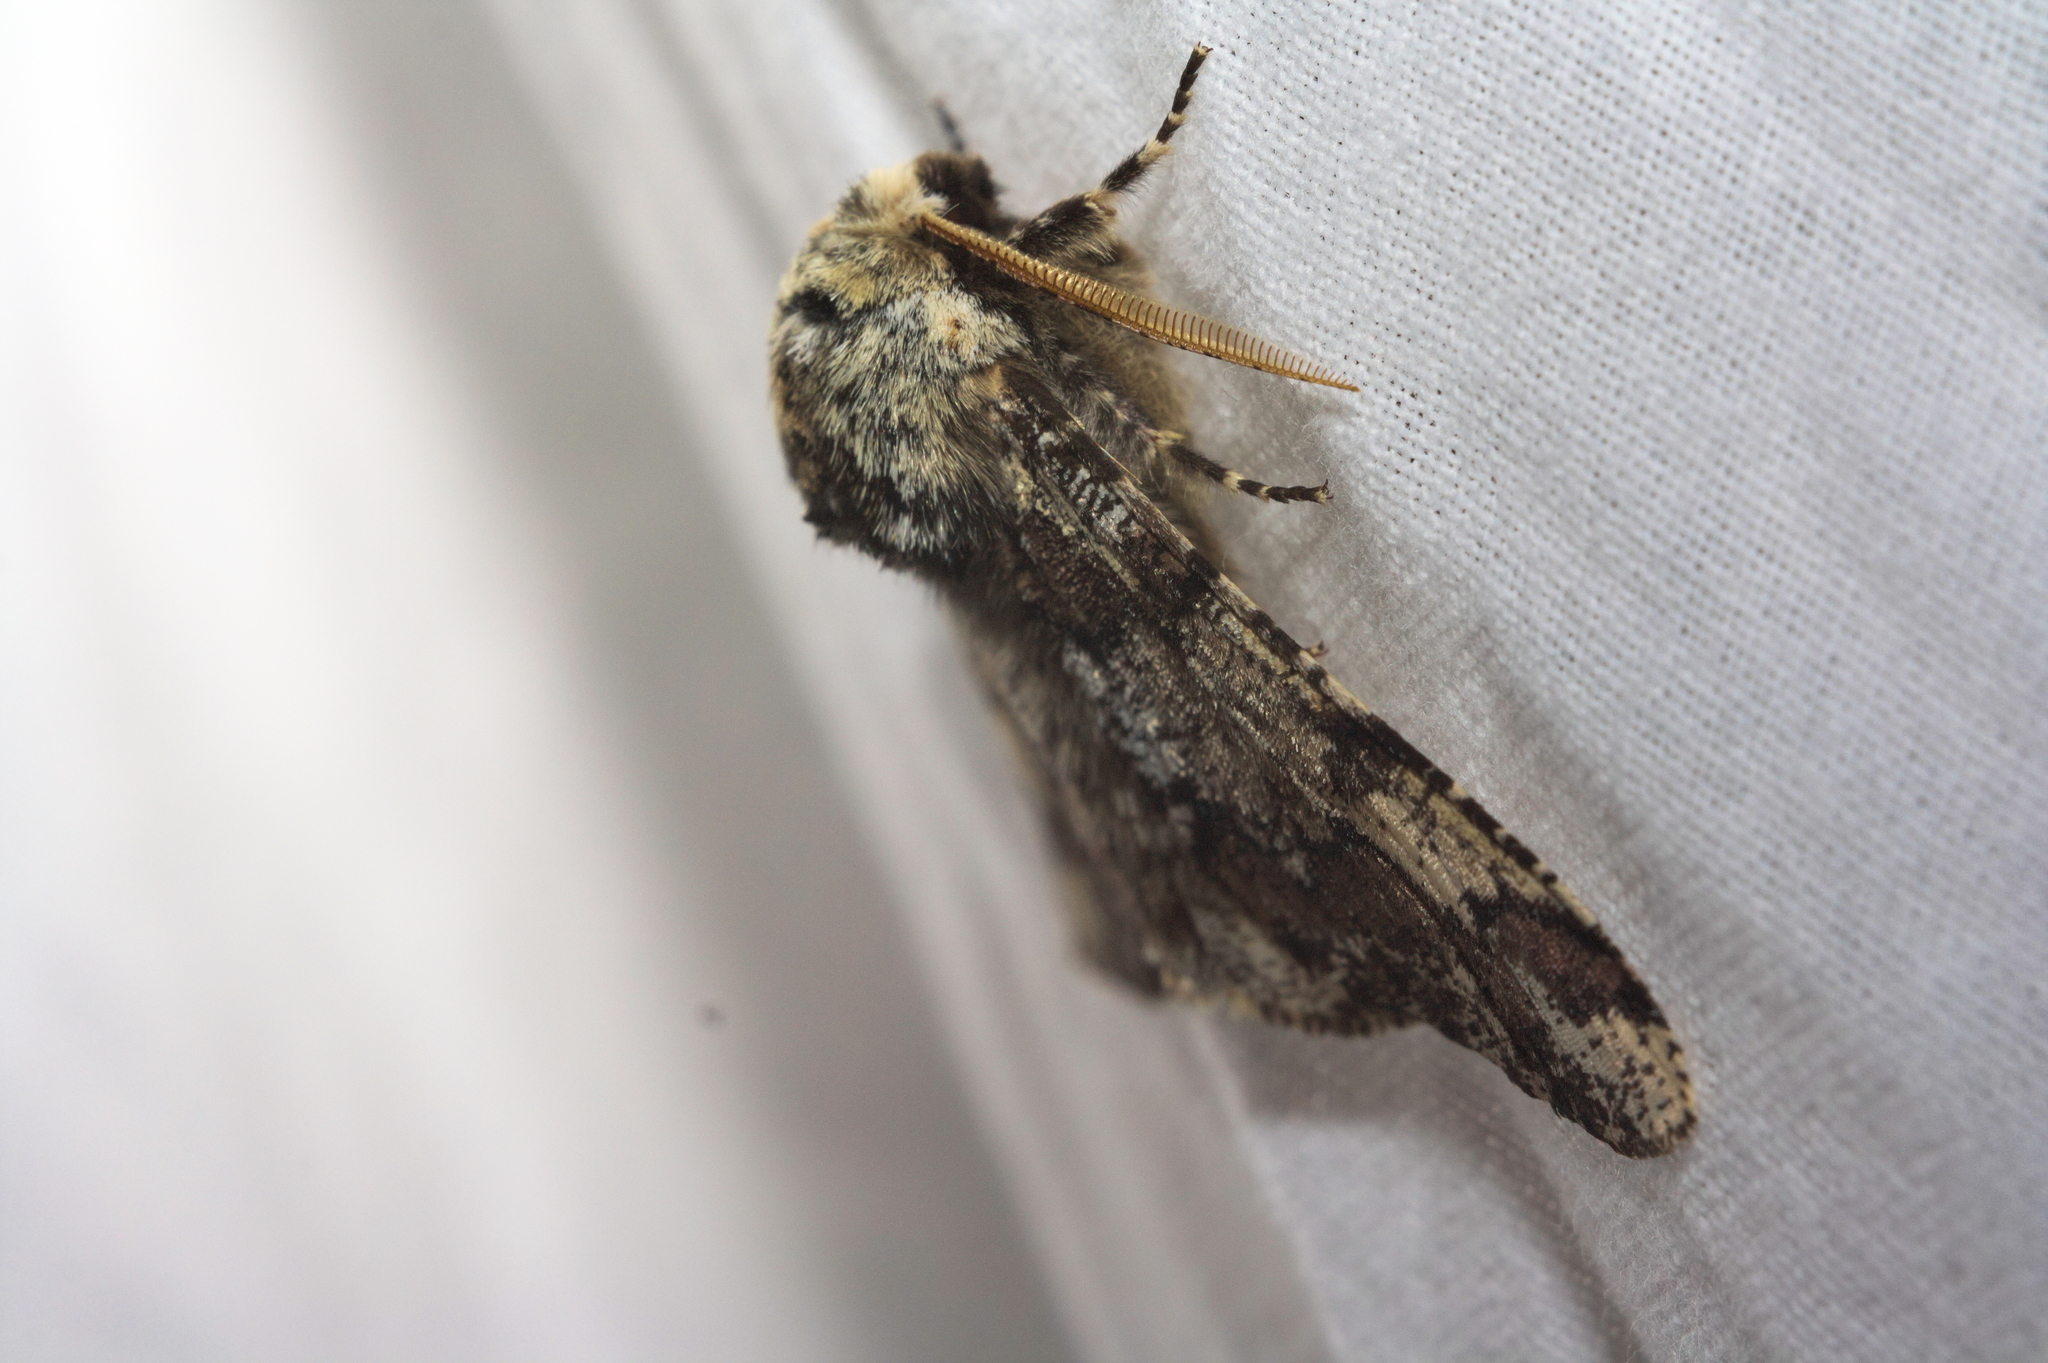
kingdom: Animalia
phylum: Arthropoda
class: Insecta
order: Lepidoptera
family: Geometridae
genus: Biston
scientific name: Biston strataria
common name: Oak beauty
